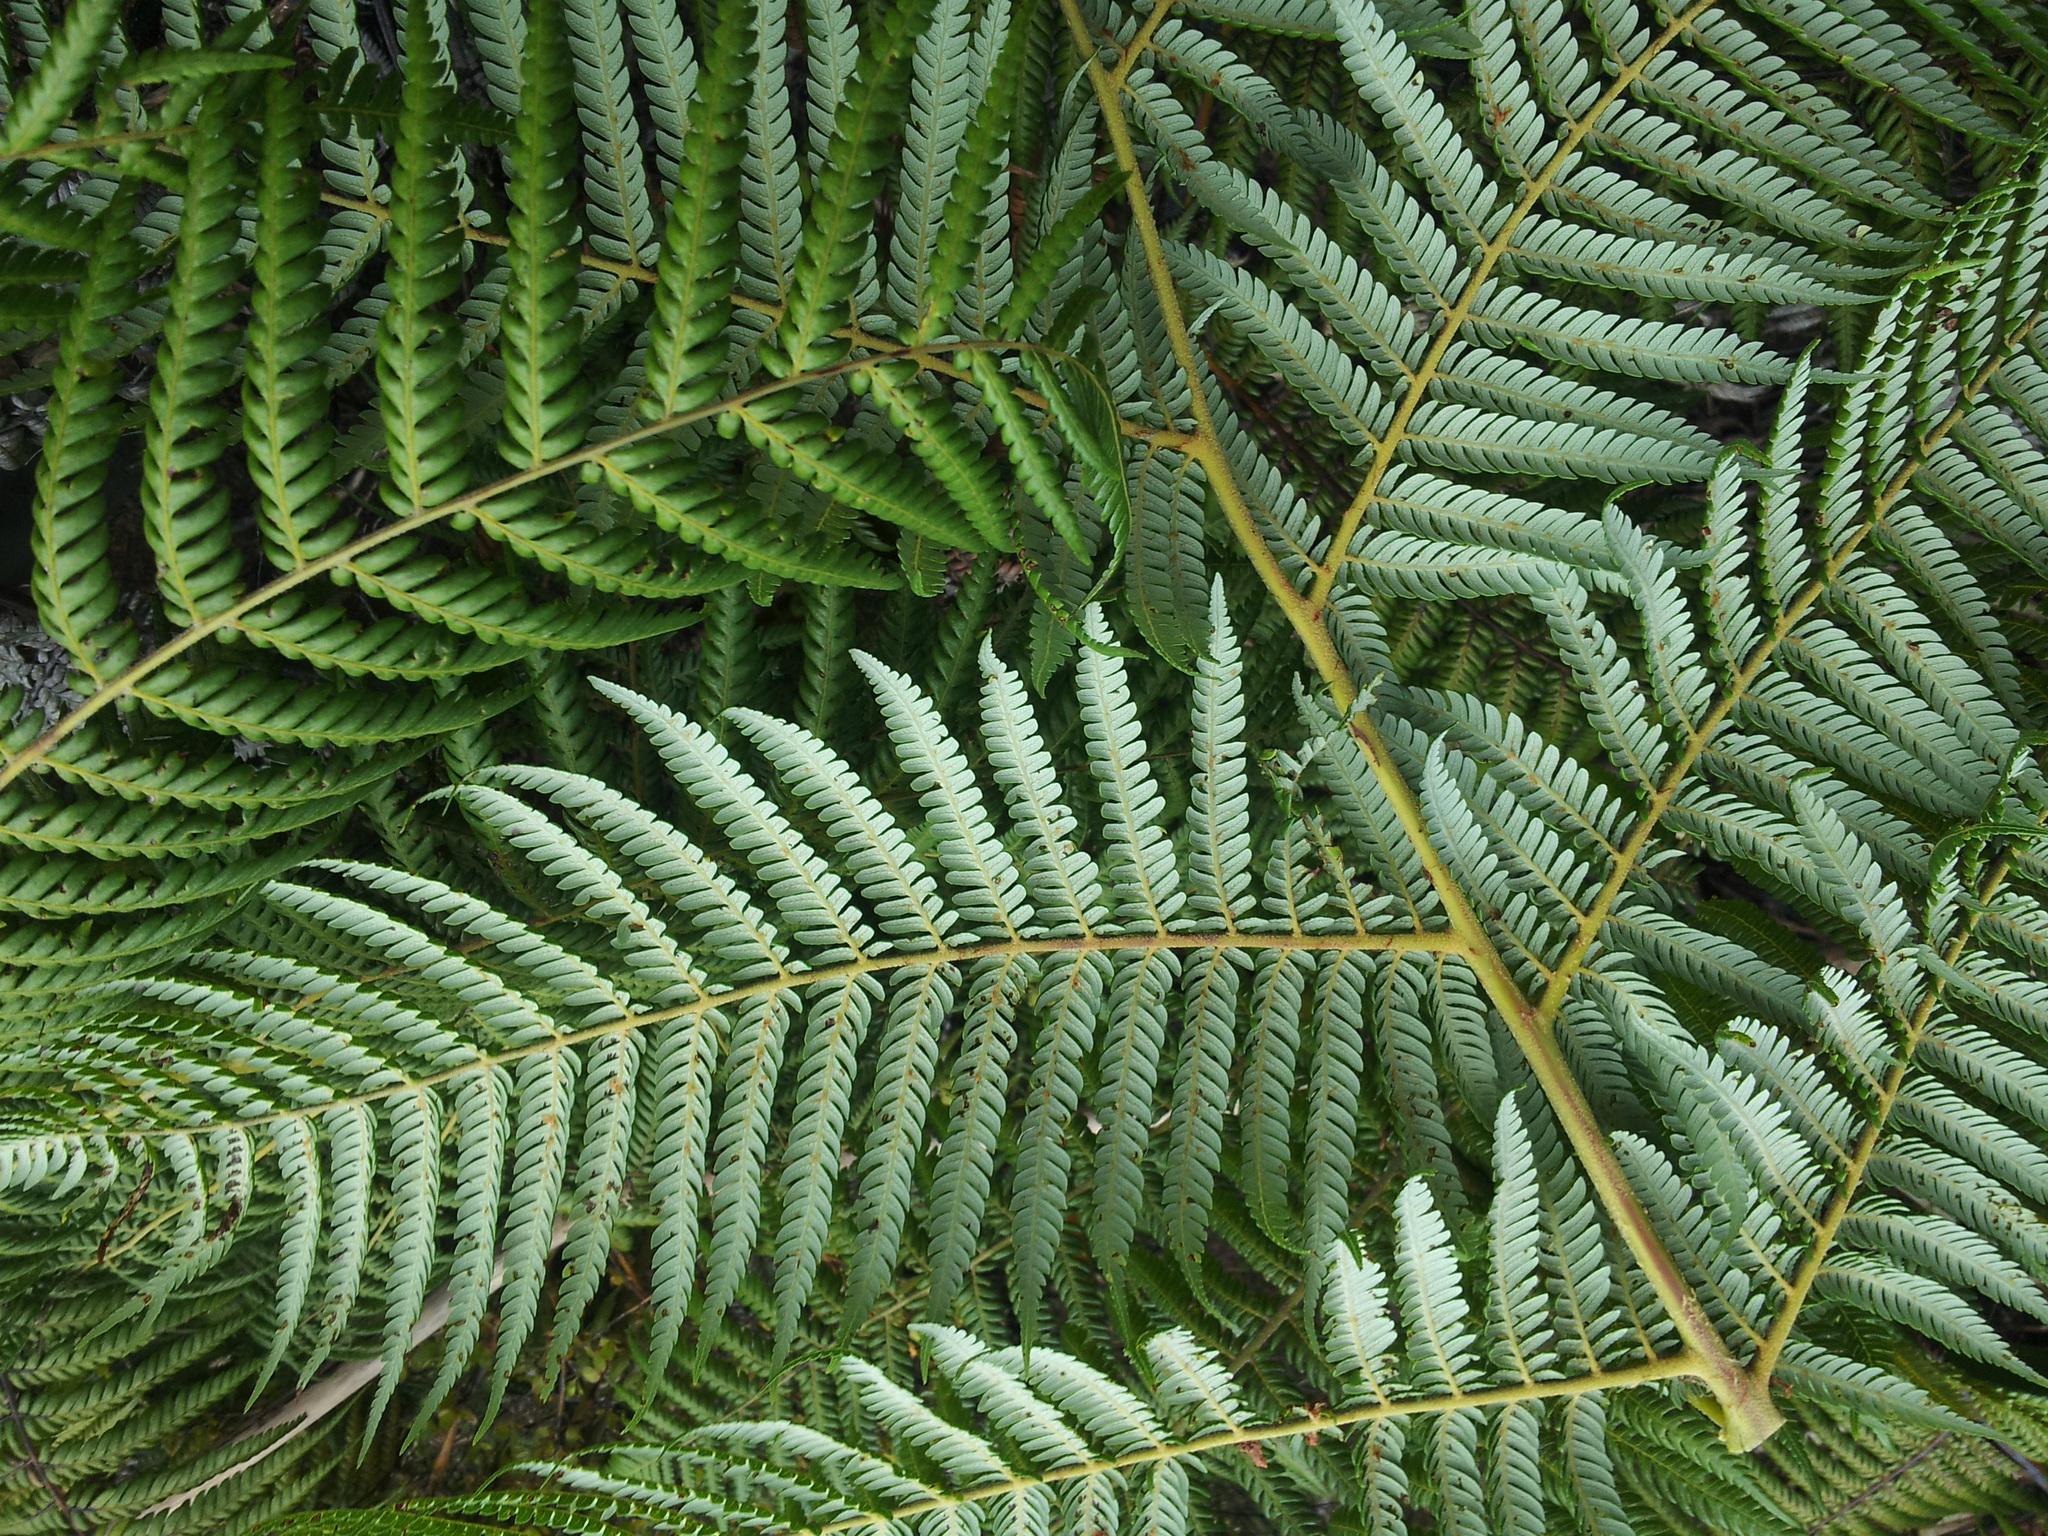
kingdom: Plantae
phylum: Tracheophyta
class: Polypodiopsida
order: Cyatheales
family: Cyatheaceae
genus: Alsophila
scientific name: Alsophila dealbata
